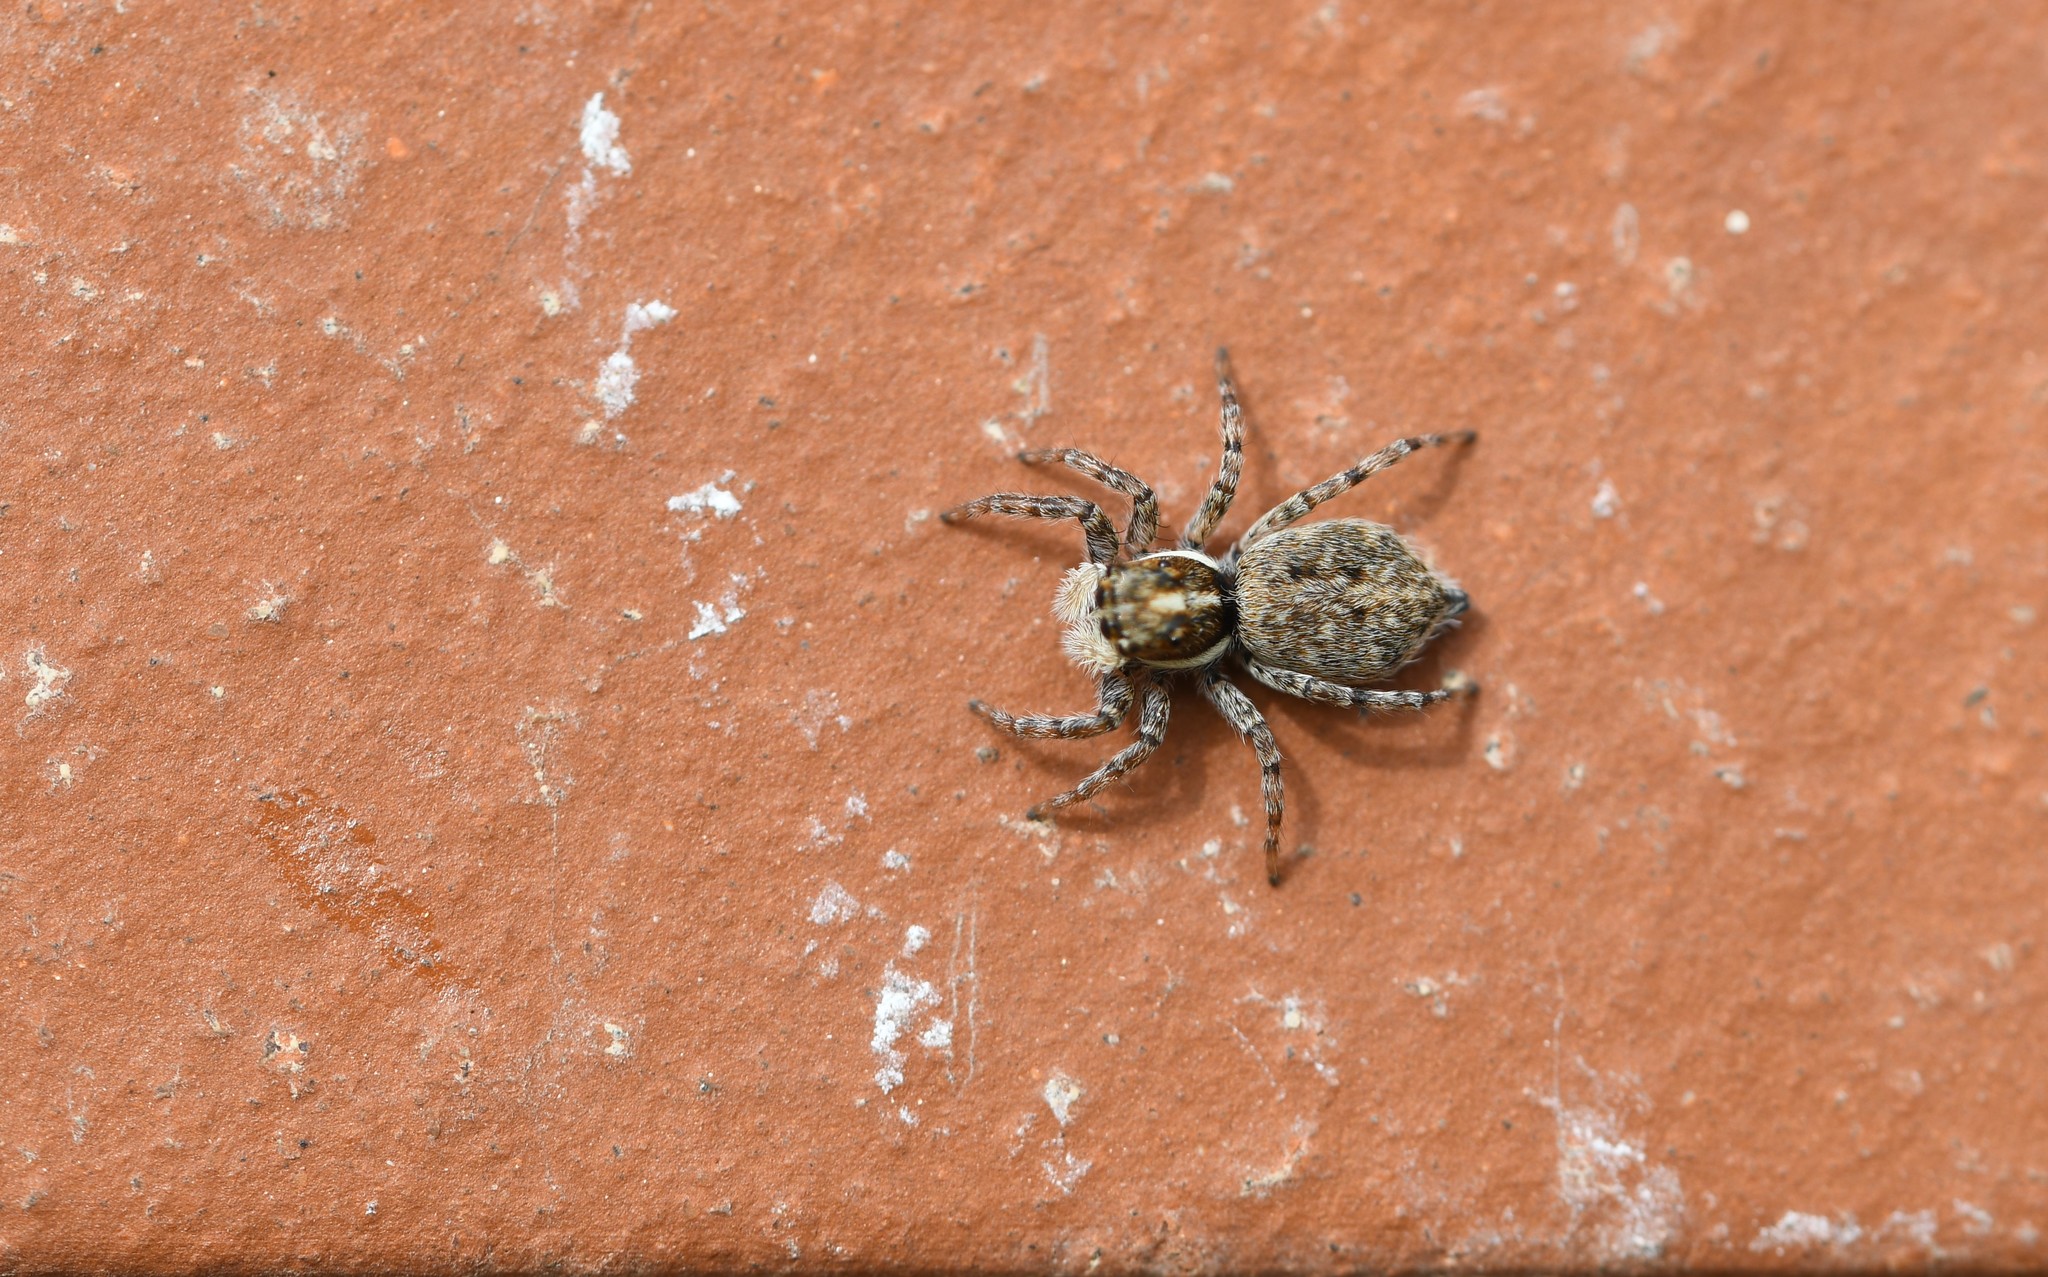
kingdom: Animalia
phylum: Arthropoda
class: Arachnida
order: Araneae
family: Salticidae
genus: Menemerus
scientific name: Menemerus semilimbatus
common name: Jumping spider
